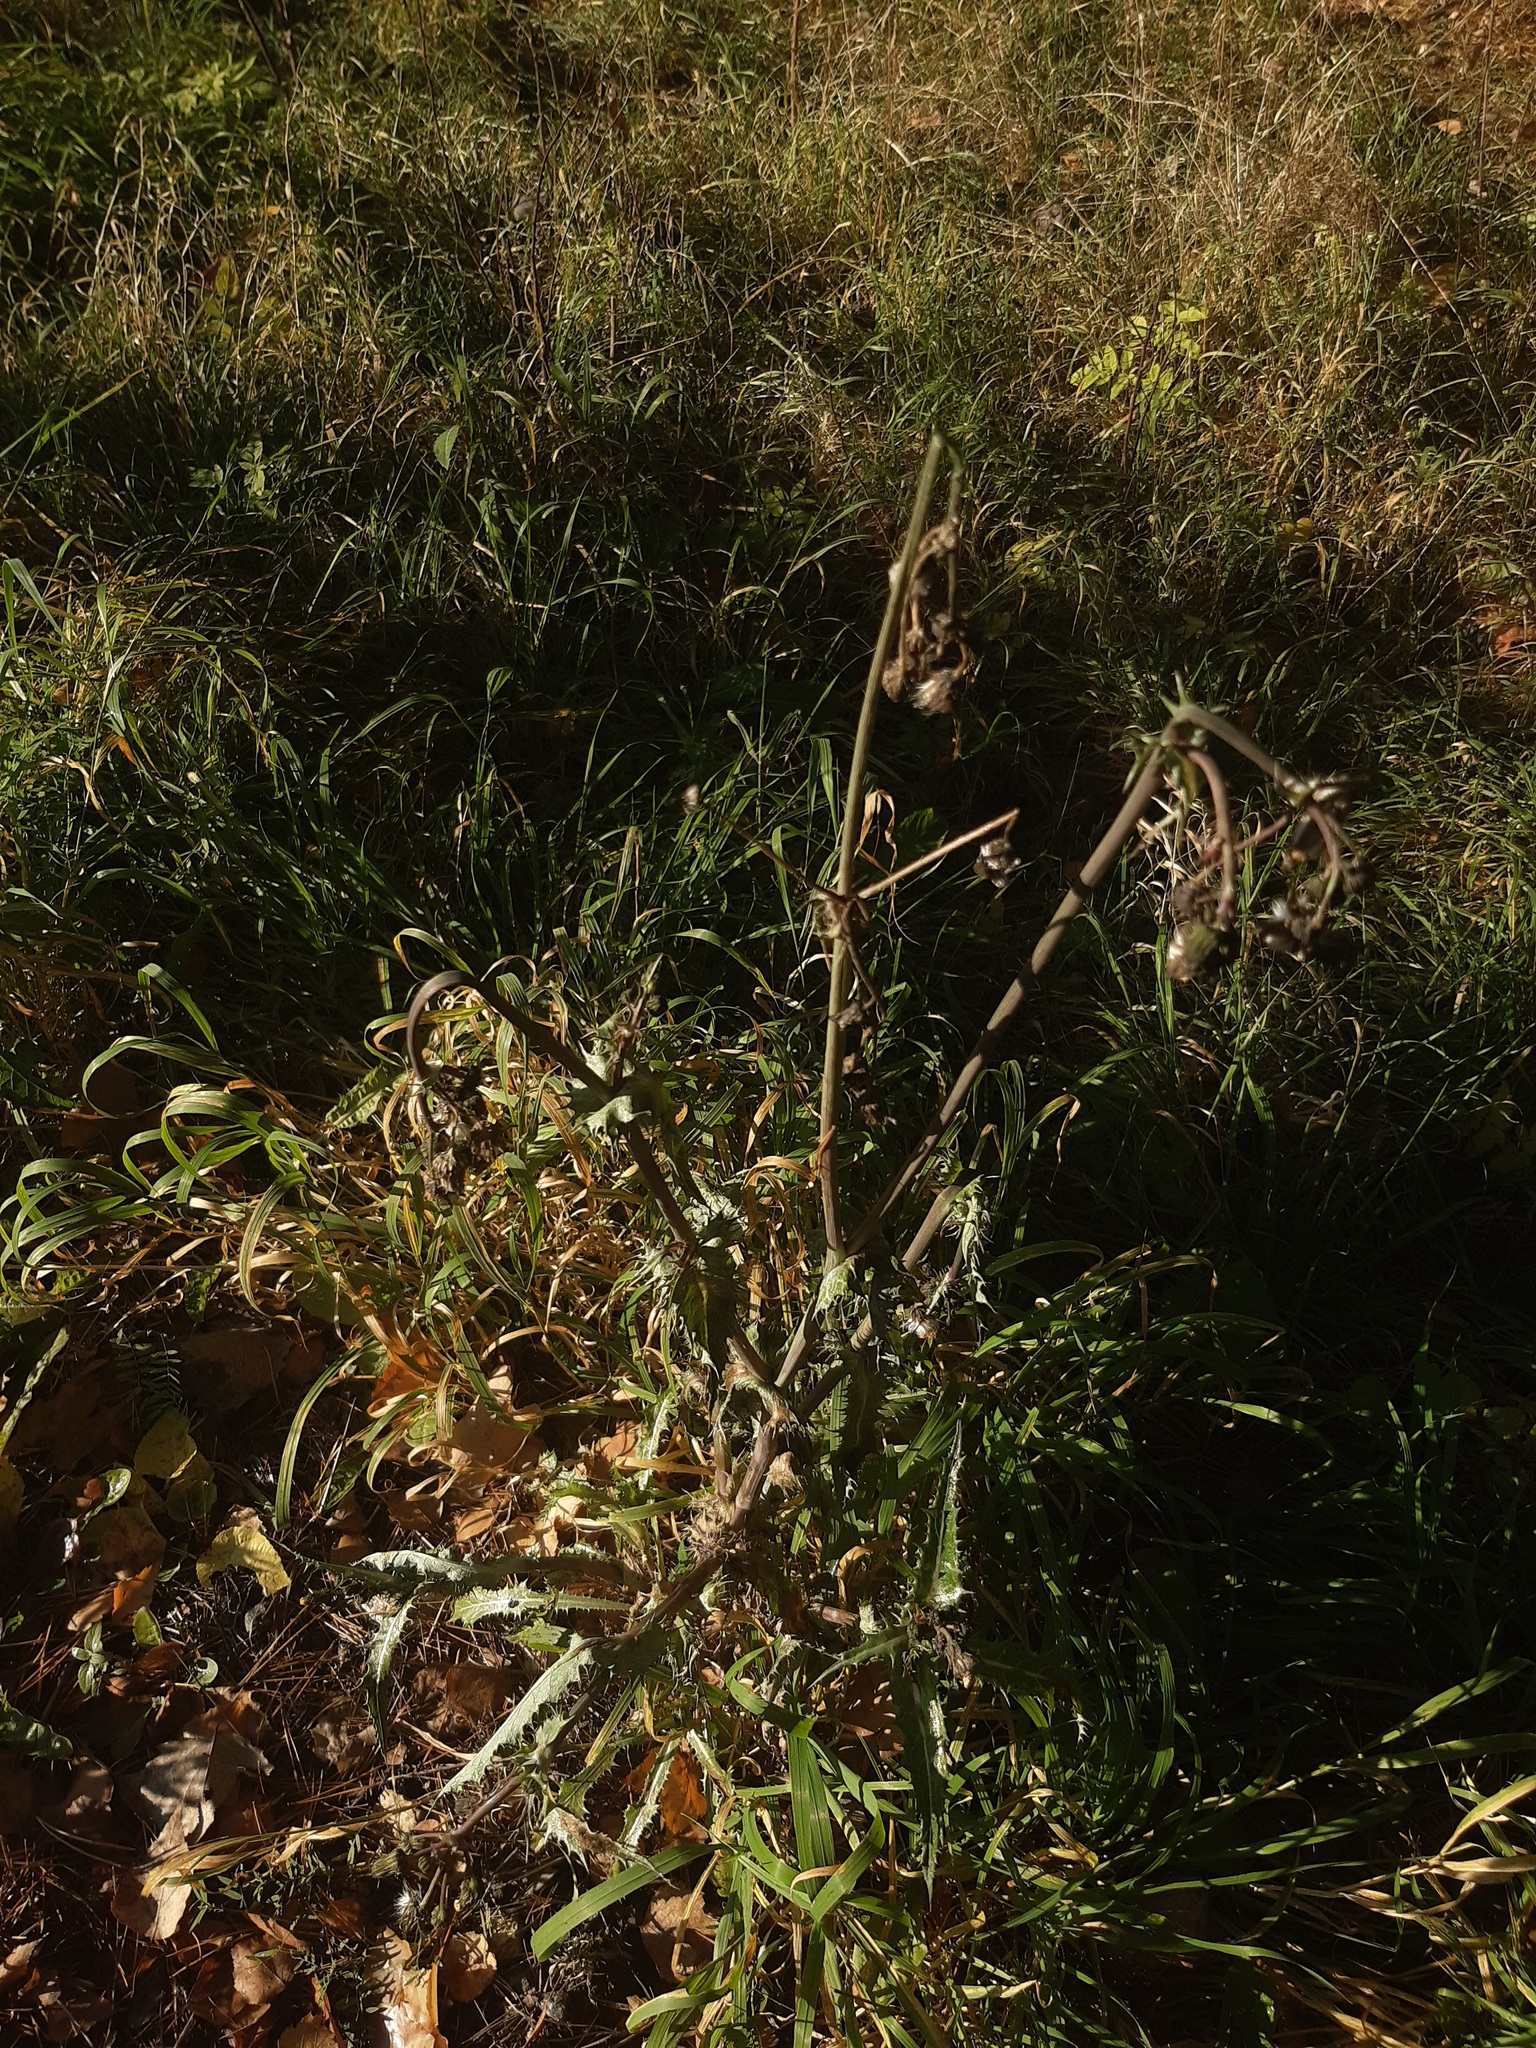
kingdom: Plantae
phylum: Tracheophyta
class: Magnoliopsida
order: Asterales
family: Asteraceae
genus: Sonchus
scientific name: Sonchus oleraceus
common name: Common sowthistle
